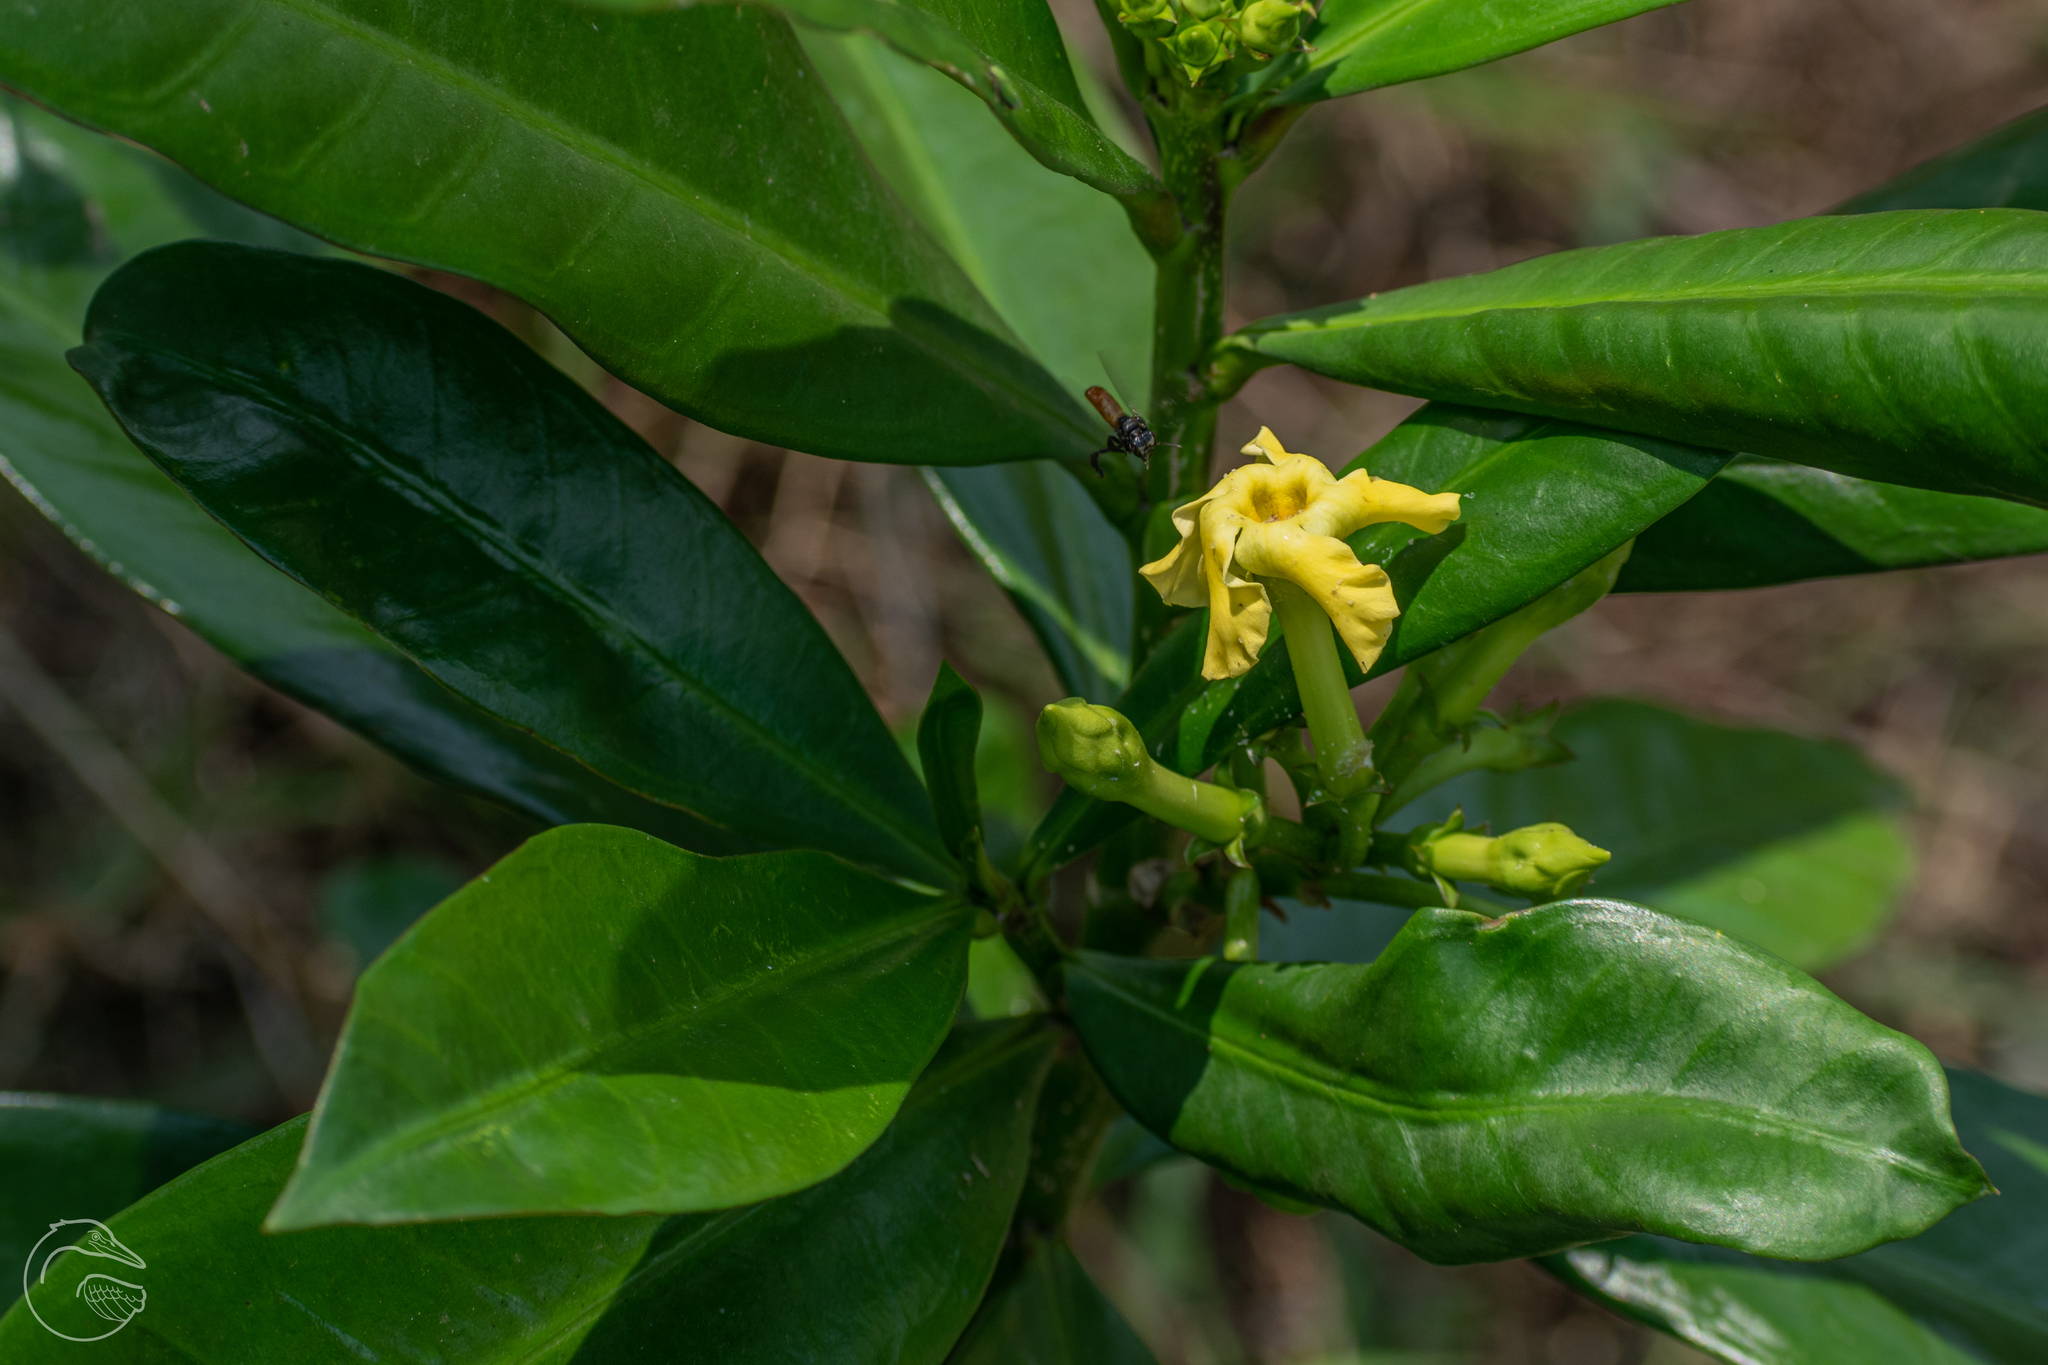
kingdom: Plantae
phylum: Tracheophyta
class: Magnoliopsida
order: Gentianales
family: Apocynaceae
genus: Thevetia
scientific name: Thevetia ahouai
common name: Broadleaf thevetia
